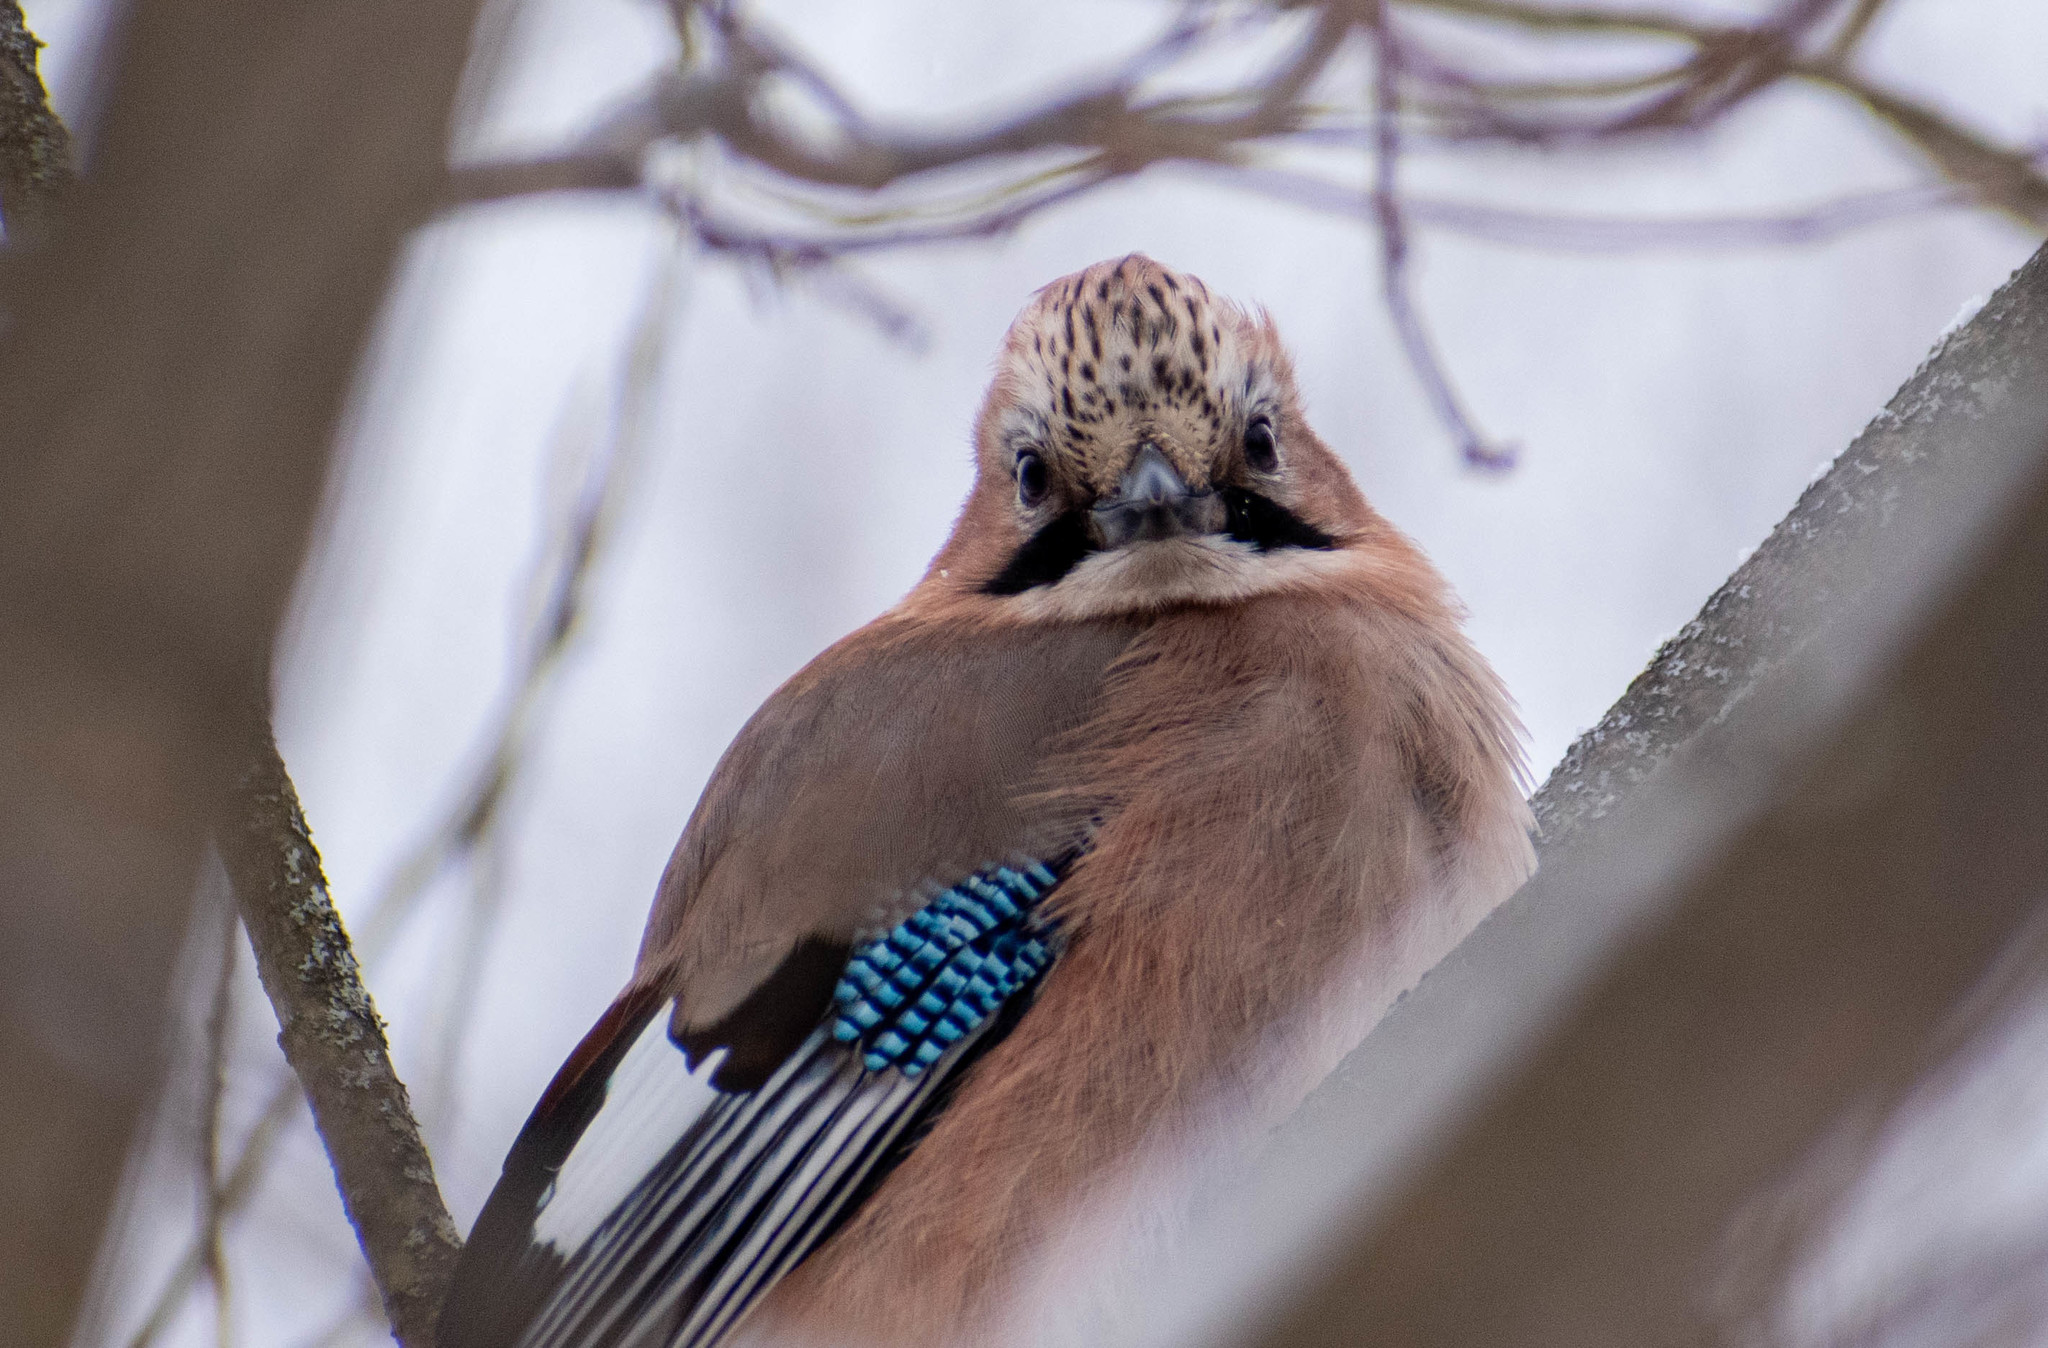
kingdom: Animalia
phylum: Chordata
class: Aves
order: Passeriformes
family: Corvidae
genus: Garrulus
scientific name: Garrulus glandarius
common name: Eurasian jay
